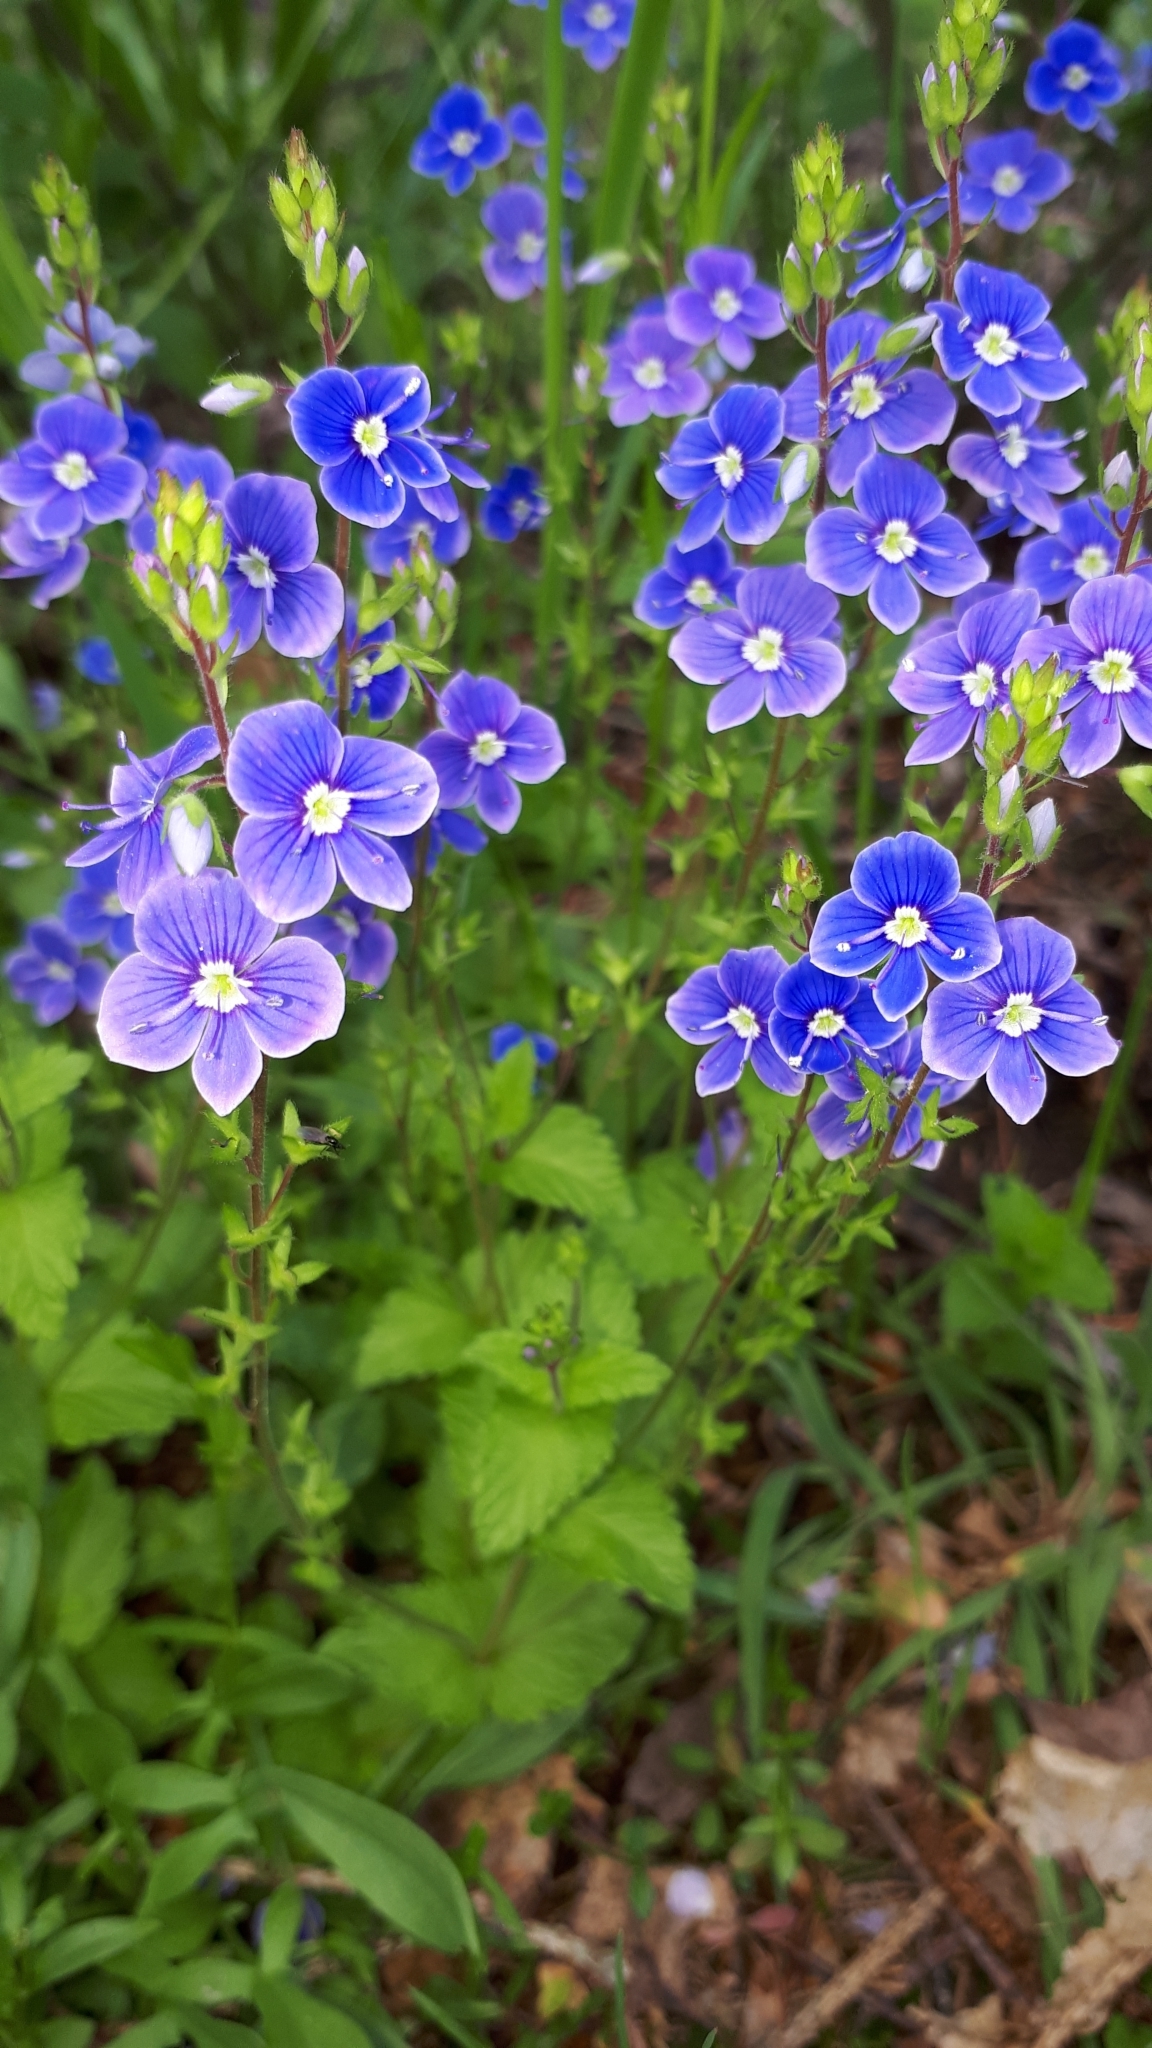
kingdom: Plantae
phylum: Tracheophyta
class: Magnoliopsida
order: Lamiales
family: Plantaginaceae
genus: Veronica
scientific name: Veronica chamaedrys
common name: Germander speedwell
